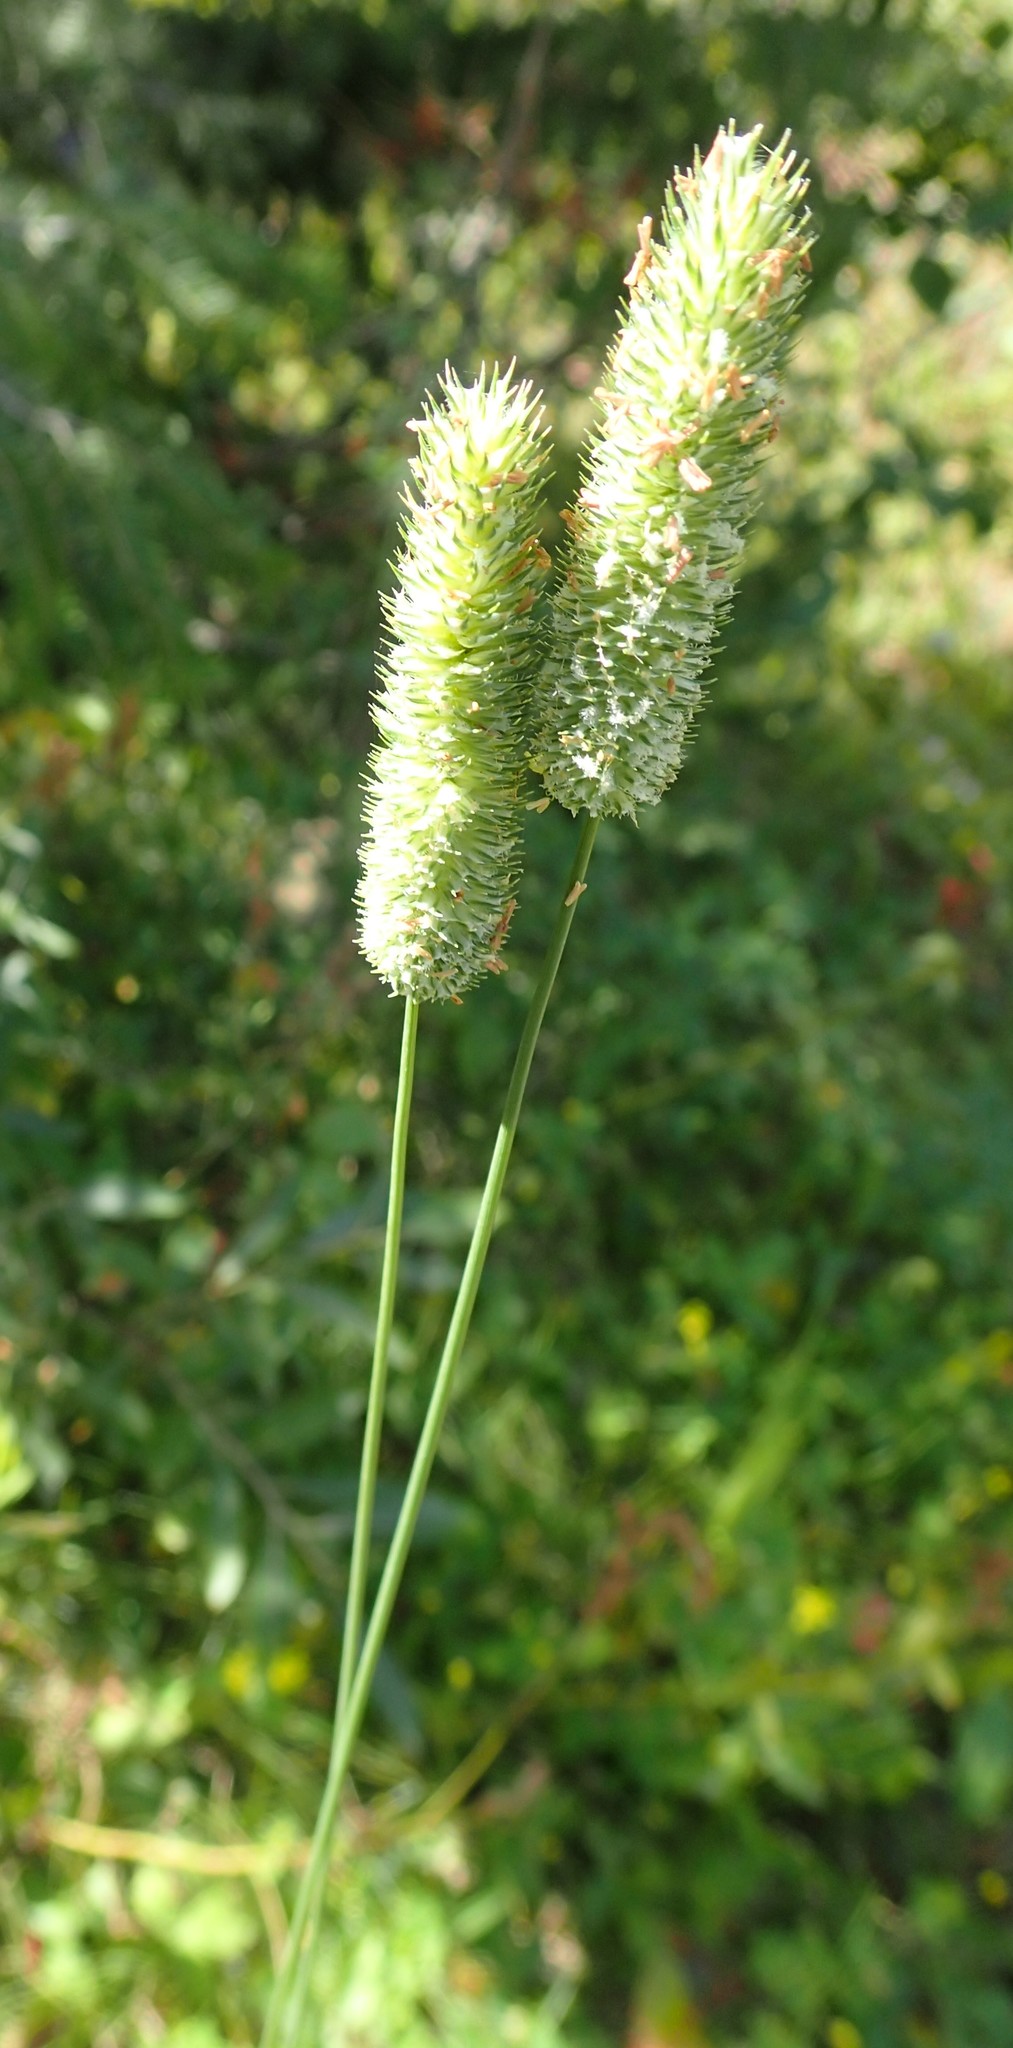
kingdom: Plantae
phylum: Tracheophyta
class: Liliopsida
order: Poales
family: Poaceae
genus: Phleum
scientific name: Phleum pratense
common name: Timothy grass
